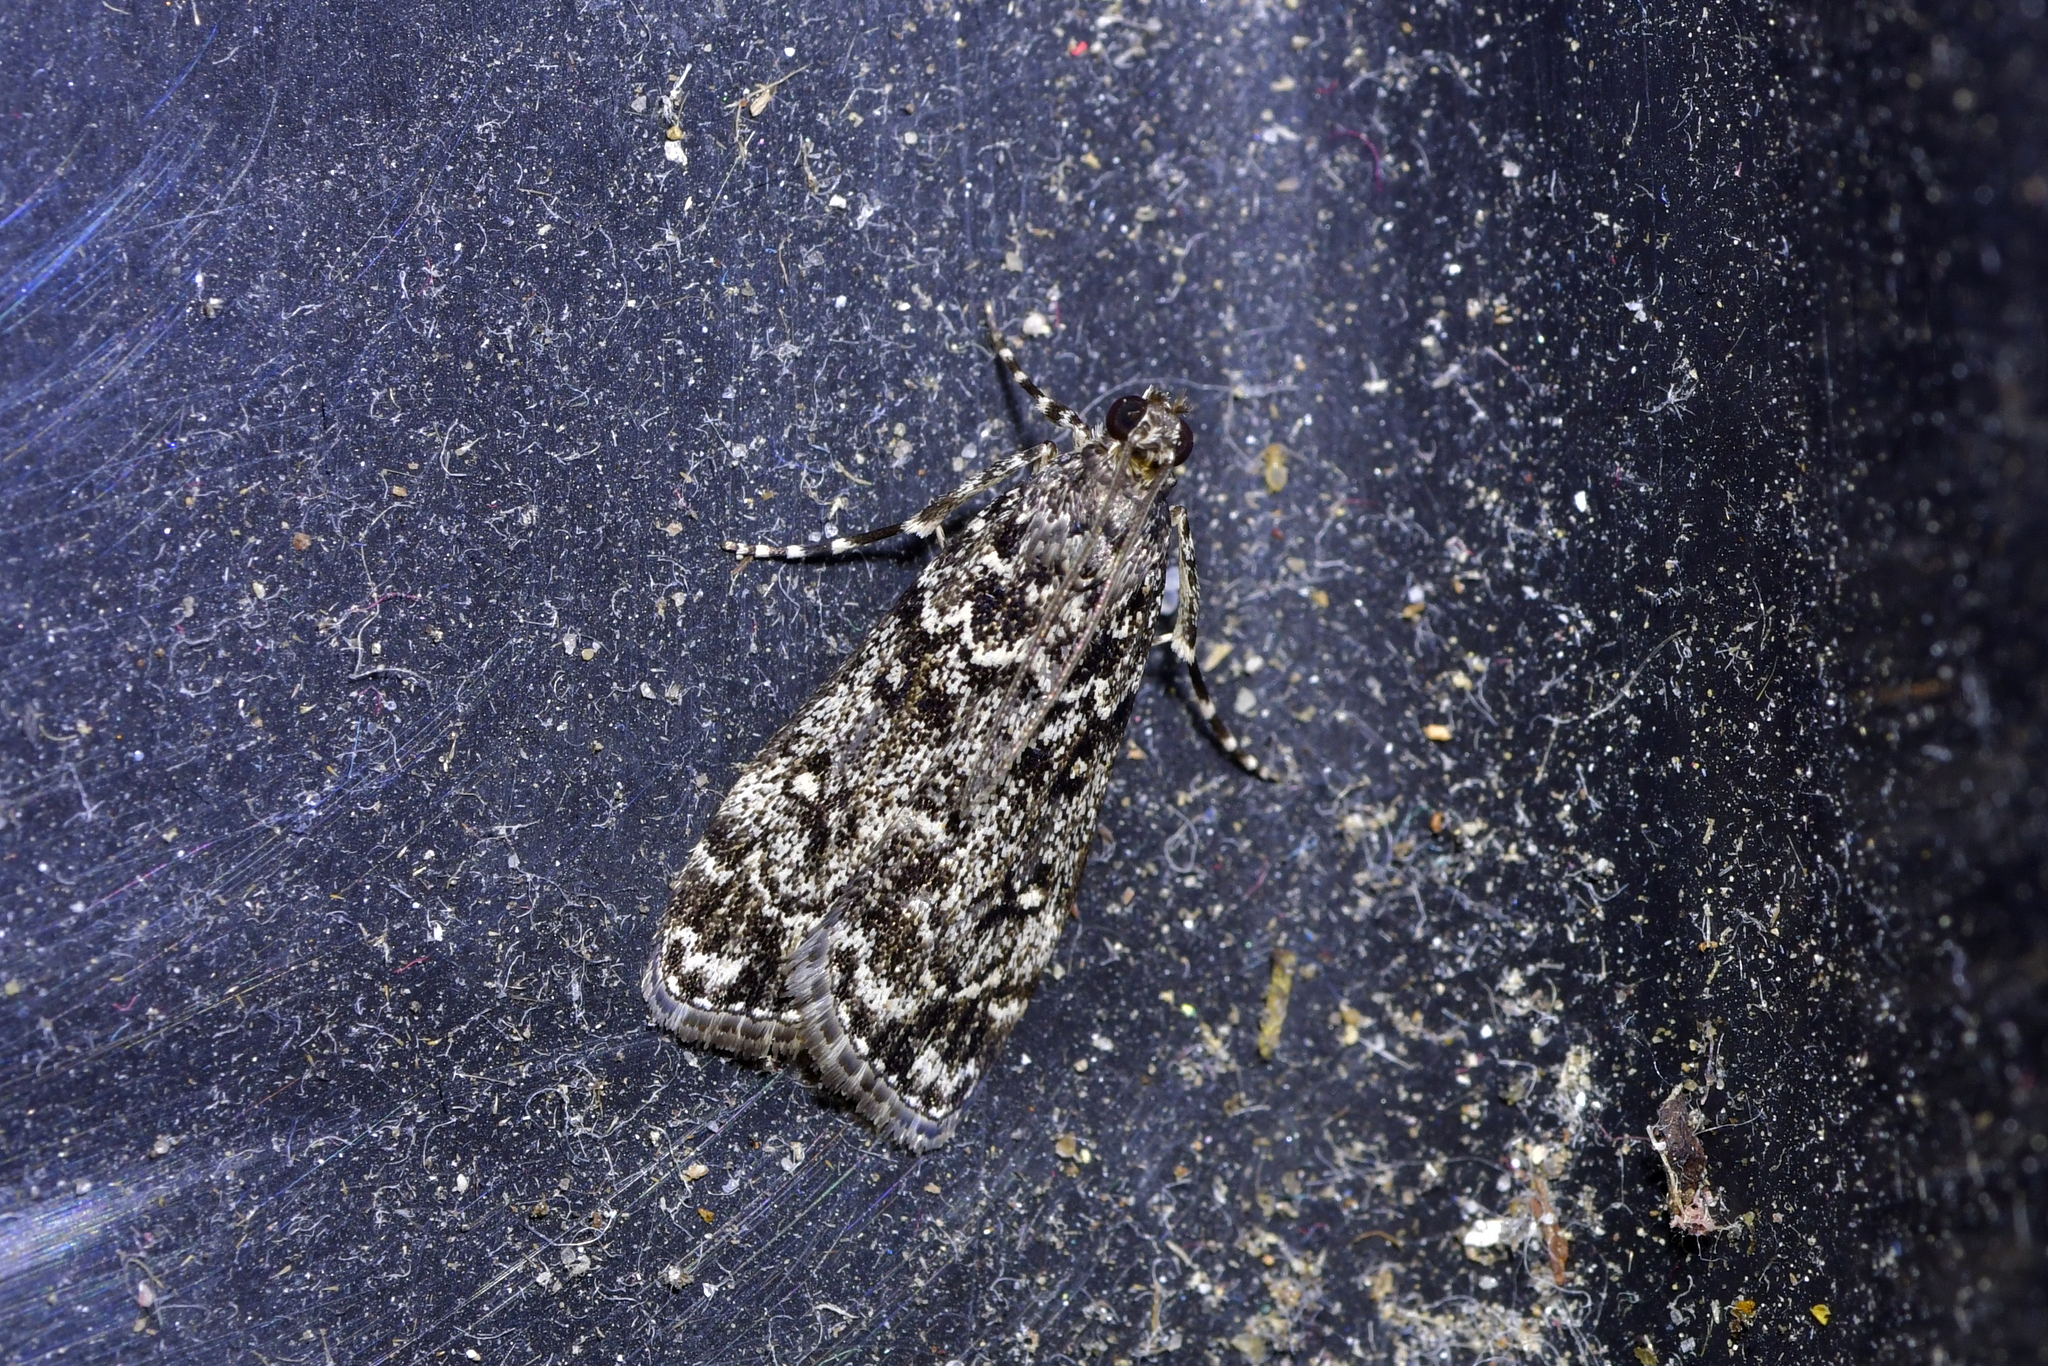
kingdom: Animalia
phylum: Arthropoda
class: Insecta
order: Lepidoptera
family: Crambidae
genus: Eudonia
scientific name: Eudonia philerga
